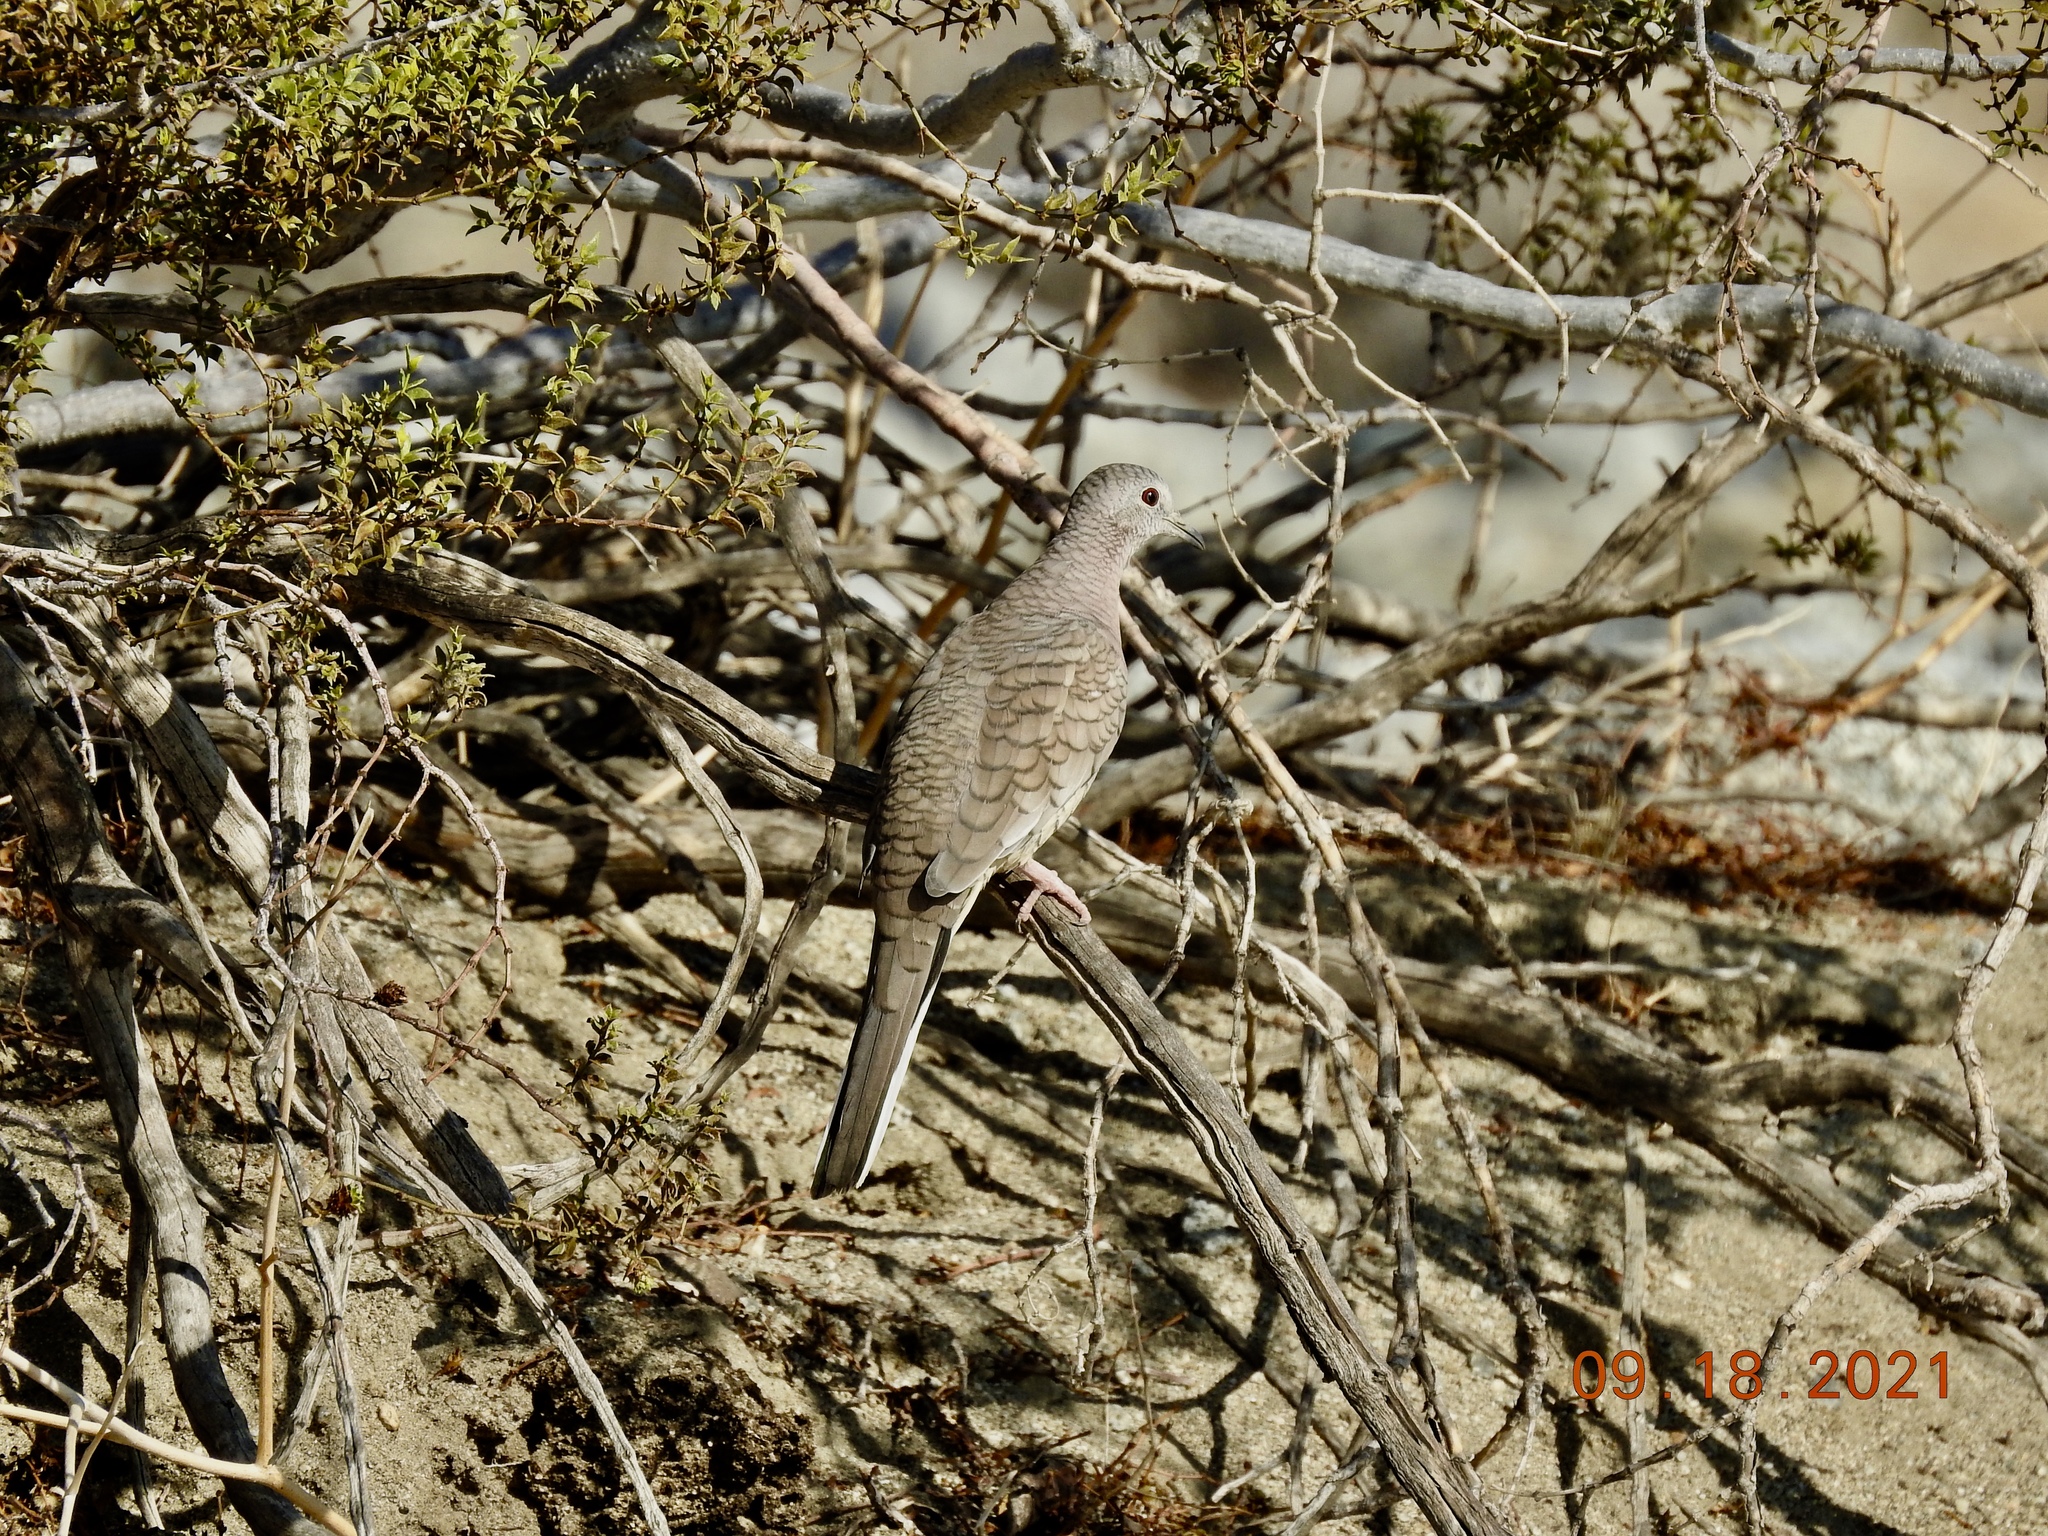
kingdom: Animalia
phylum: Chordata
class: Aves
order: Columbiformes
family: Columbidae
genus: Columbina
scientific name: Columbina inca
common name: Inca dove
